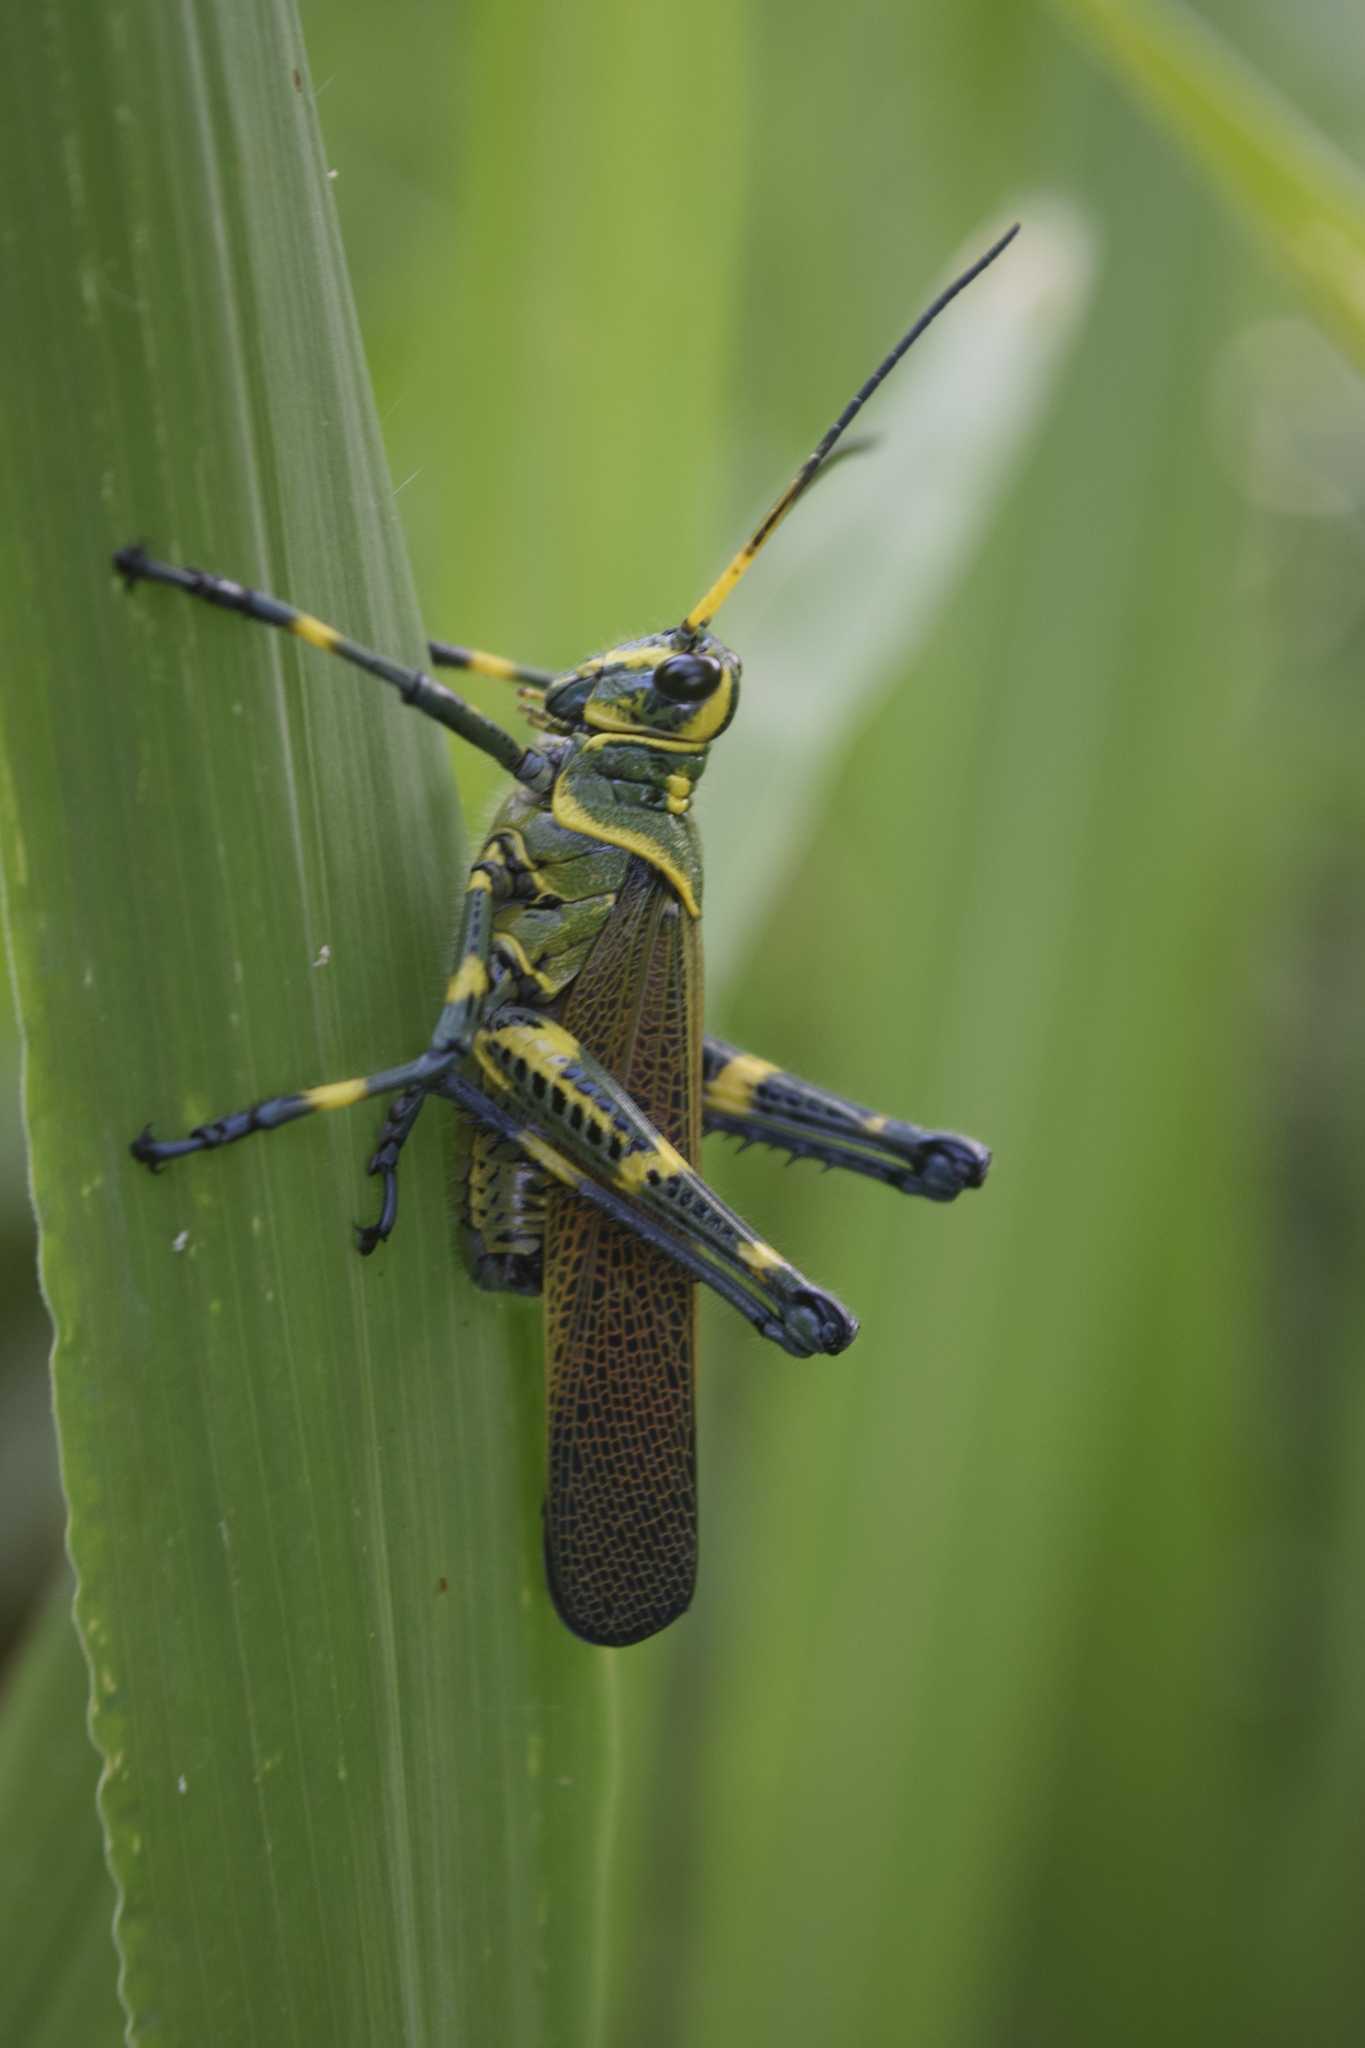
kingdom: Animalia
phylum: Arthropoda
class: Insecta
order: Orthoptera
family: Romaleidae
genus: Chromacris
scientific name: Chromacris colorata
